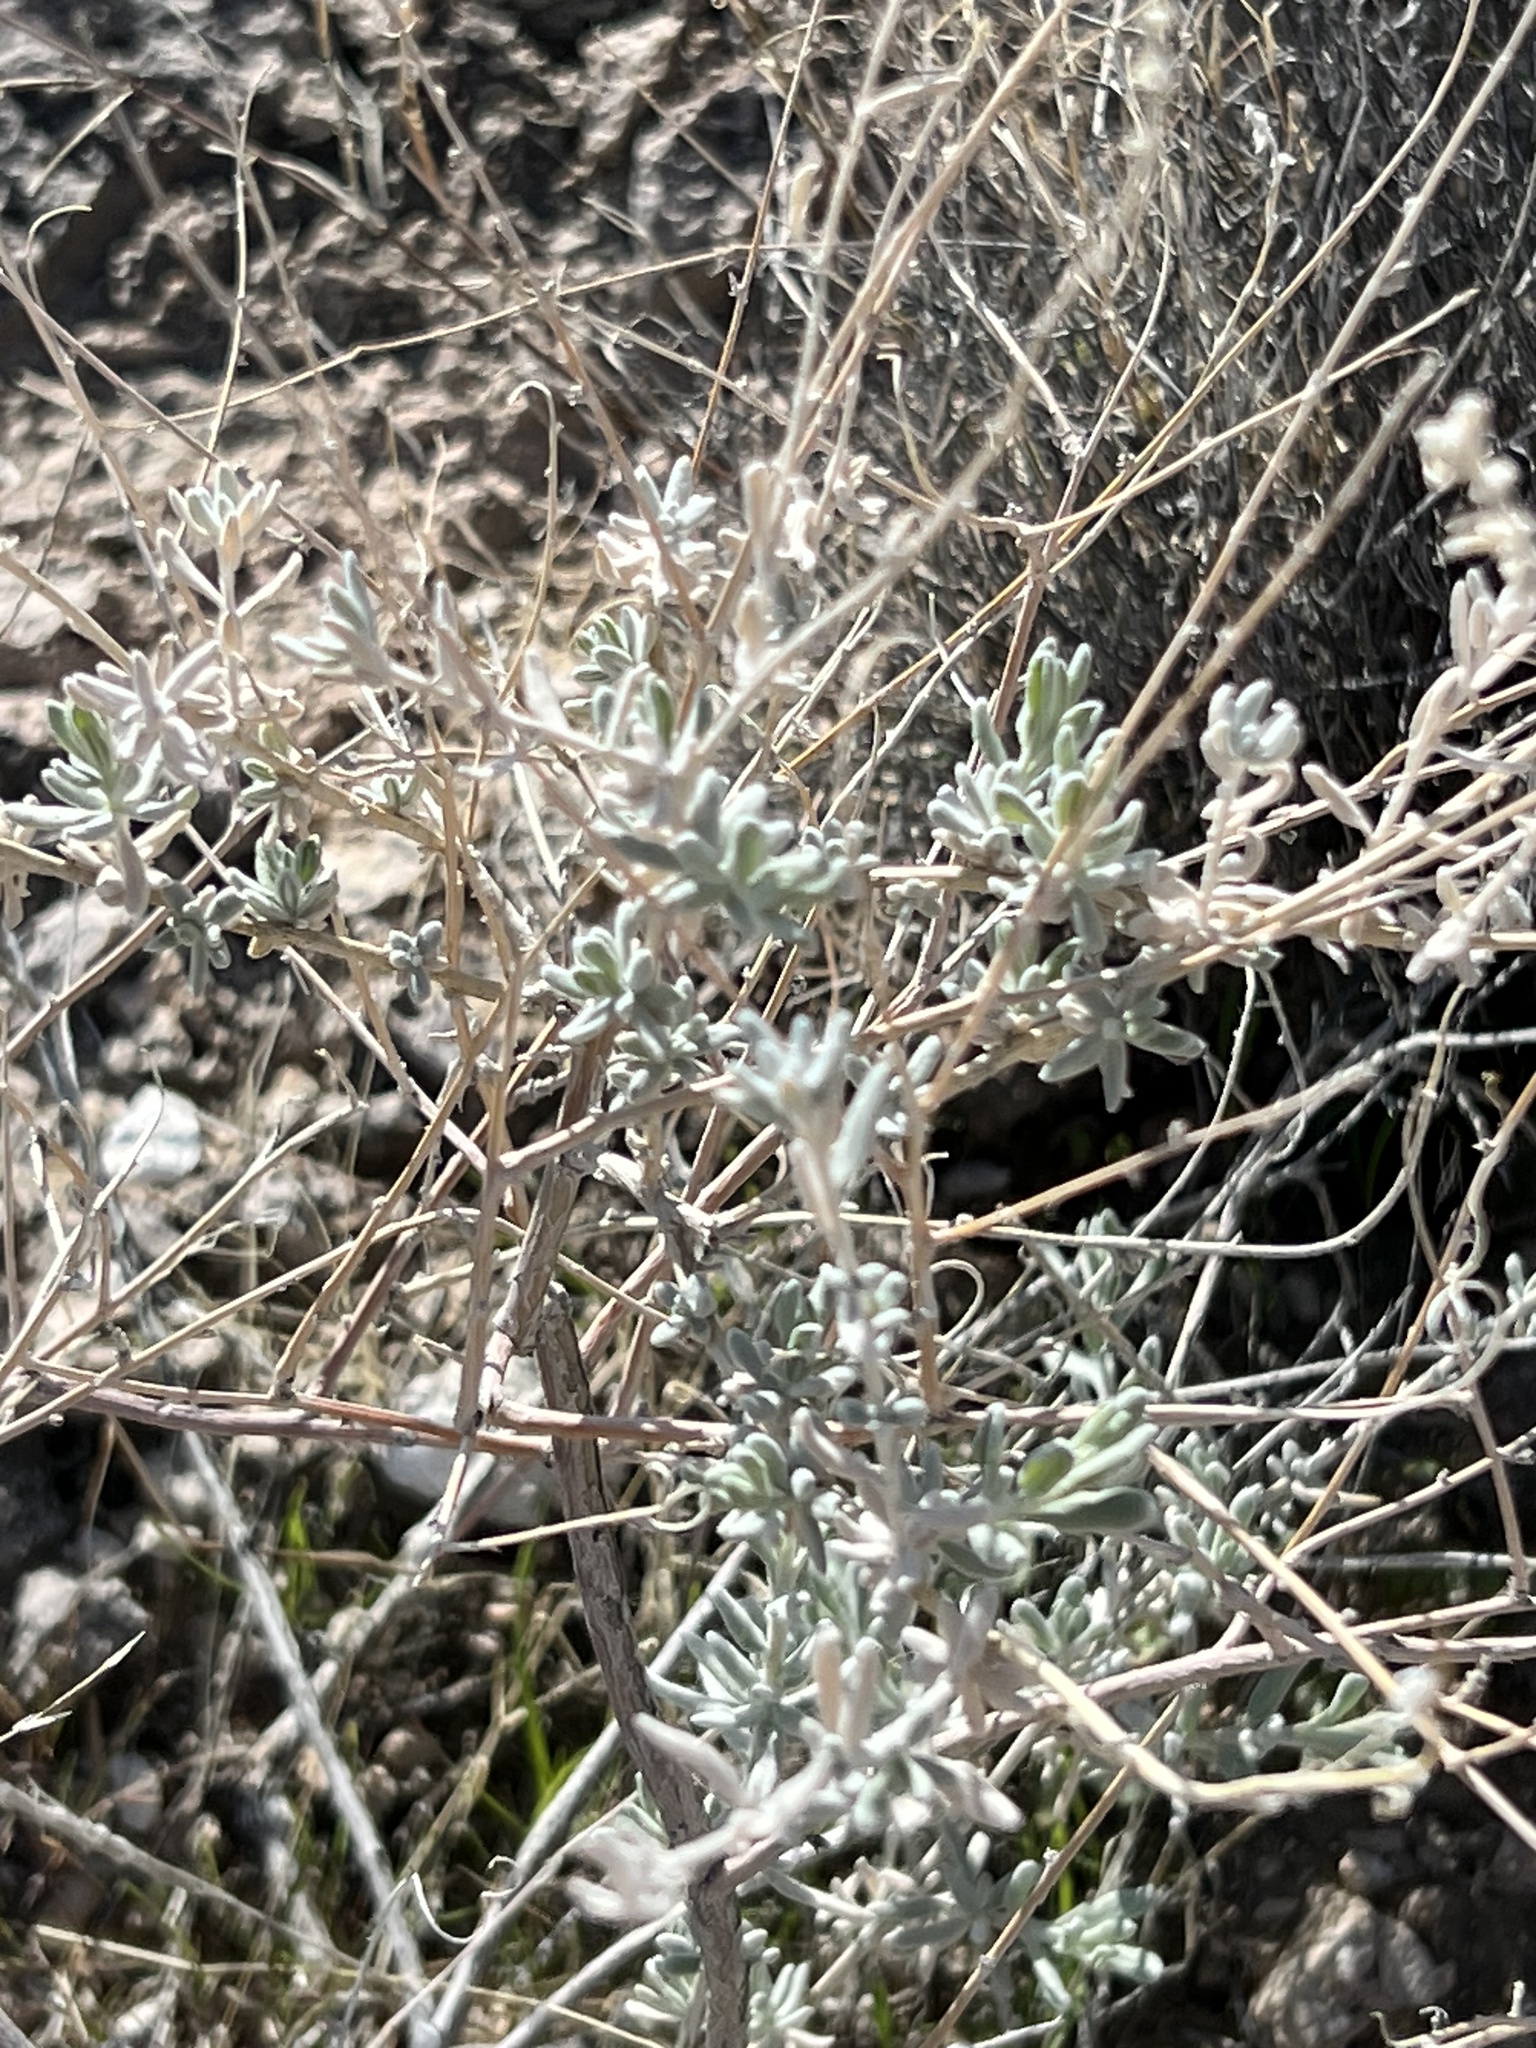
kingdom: Plantae
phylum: Tracheophyta
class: Magnoliopsida
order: Caryophyllales
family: Amaranthaceae
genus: Krascheninnikovia
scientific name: Krascheninnikovia lanata
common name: Winterfat
